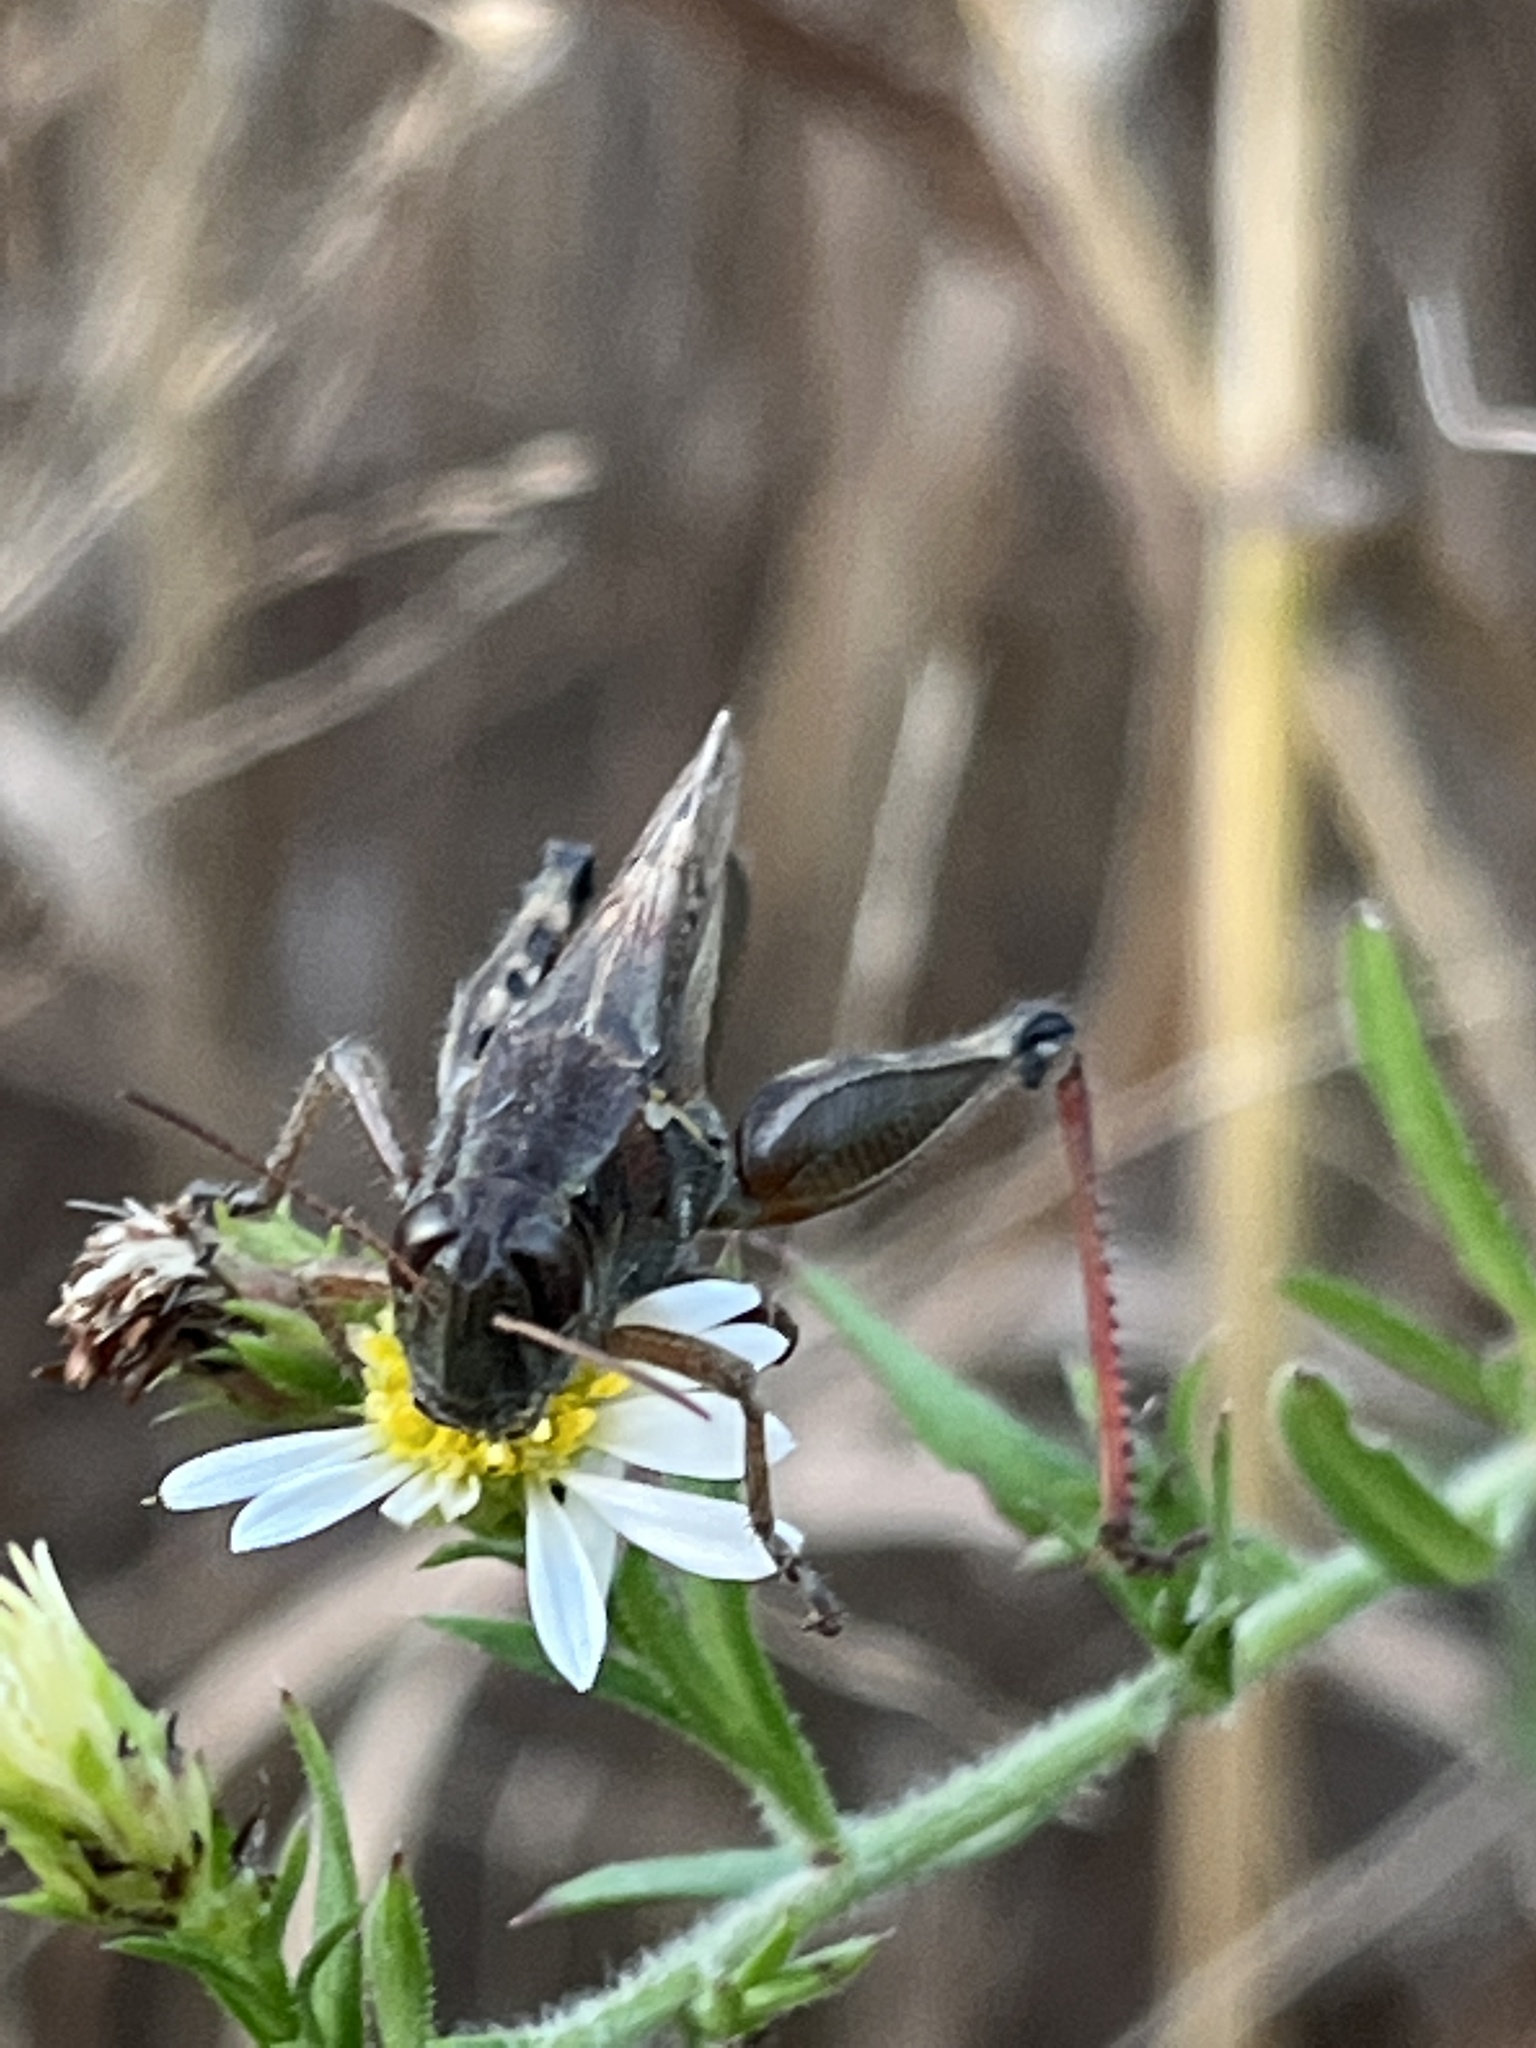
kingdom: Animalia
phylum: Arthropoda
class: Insecta
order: Orthoptera
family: Acrididae
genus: Melanoplus
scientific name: Melanoplus femurrubrum
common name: Red-legged grasshopper
